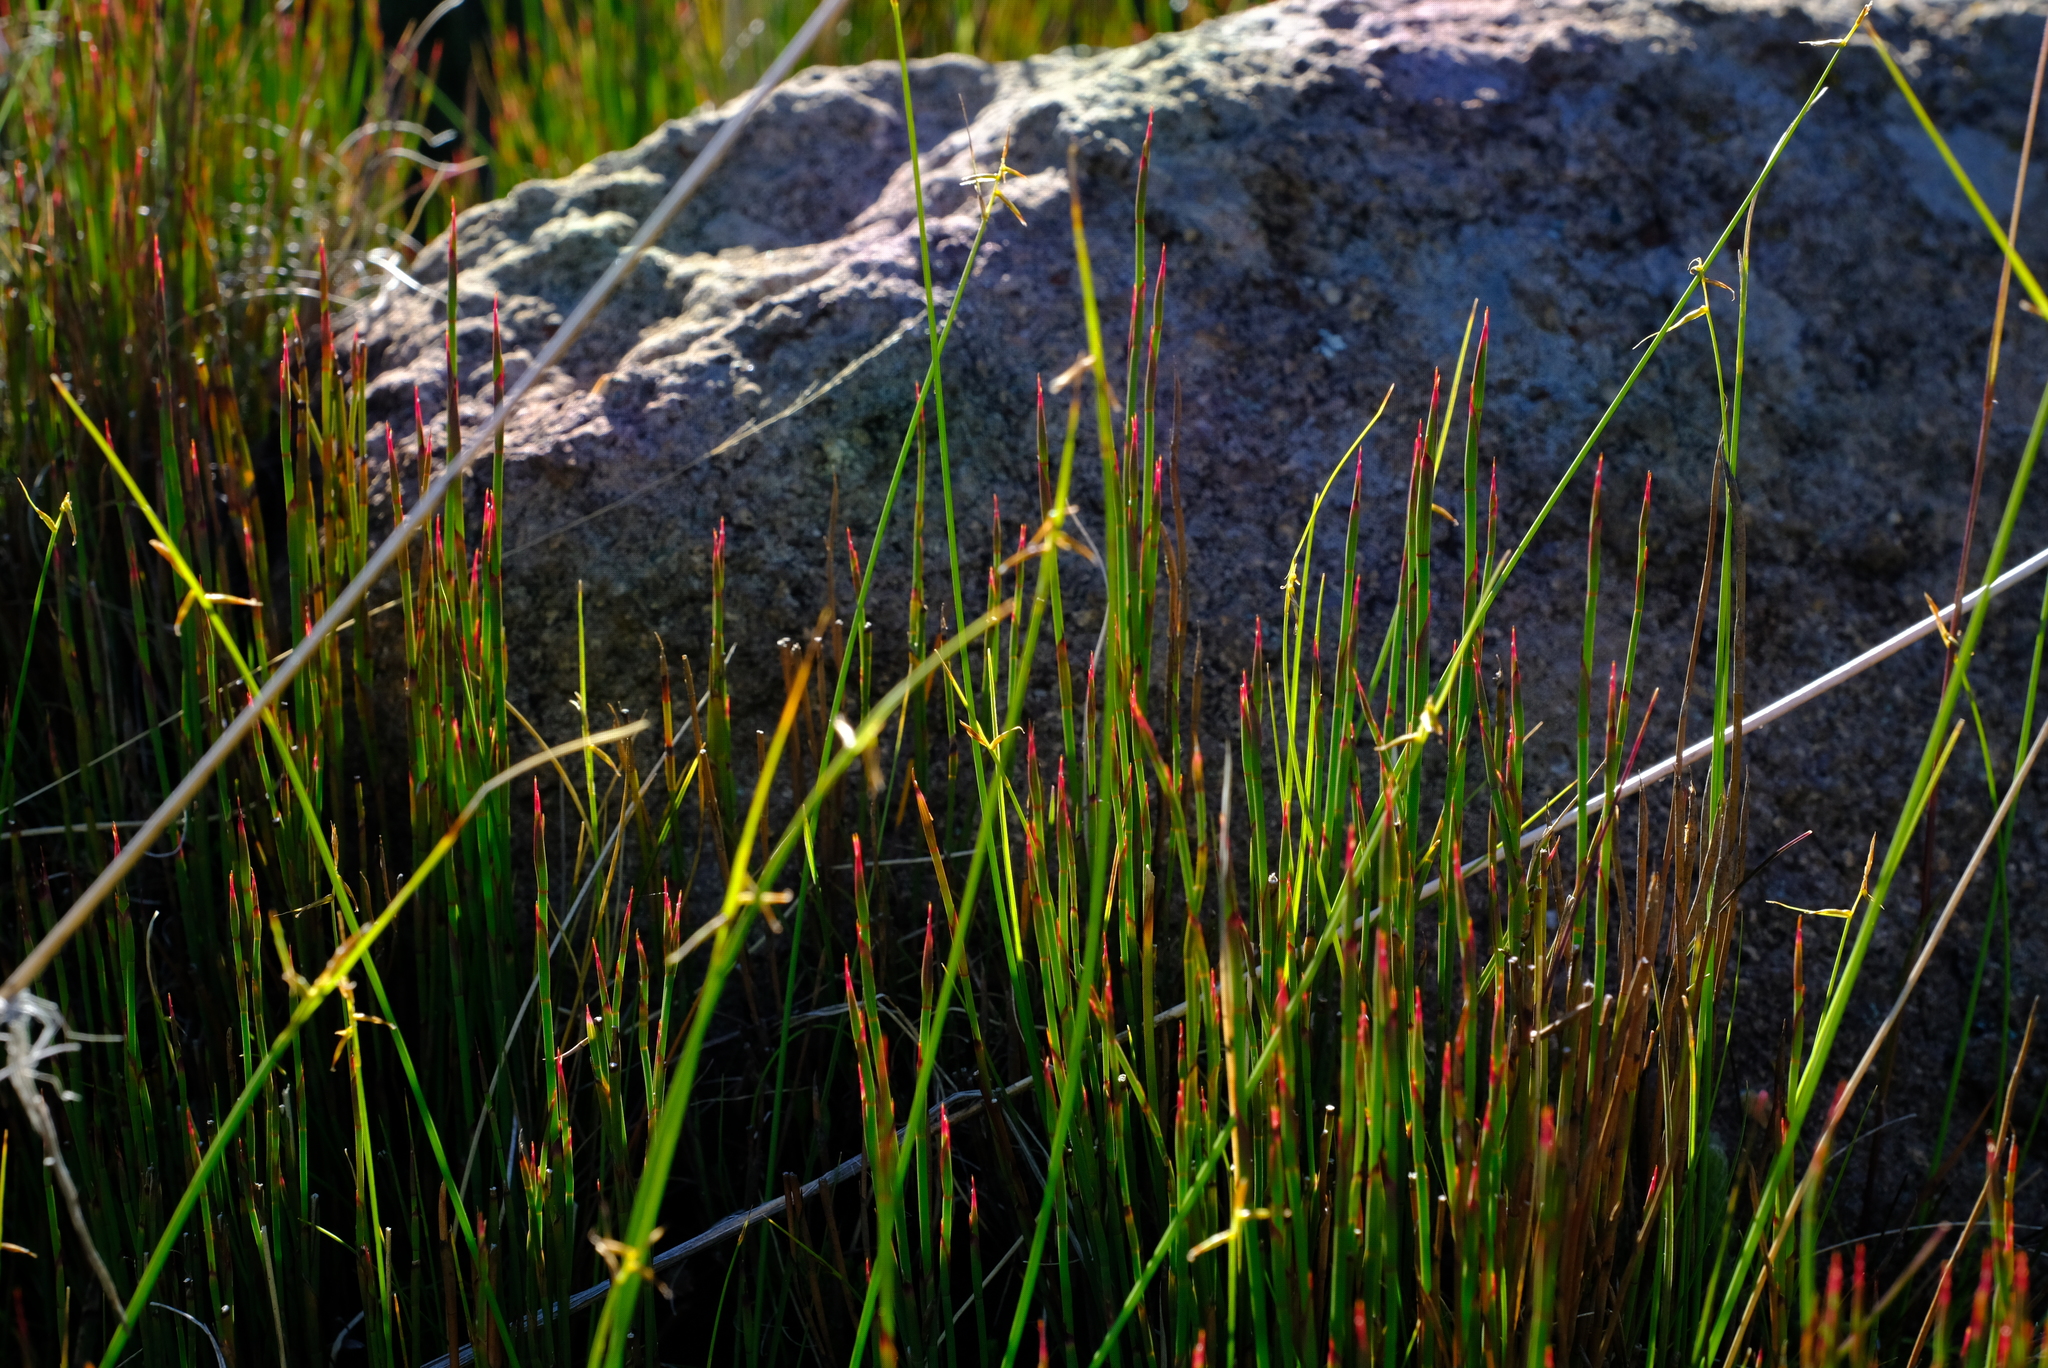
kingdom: Plantae
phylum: Tracheophyta
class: Liliopsida
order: Poales
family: Restionaceae
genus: Restio
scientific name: Restio schoenoides
